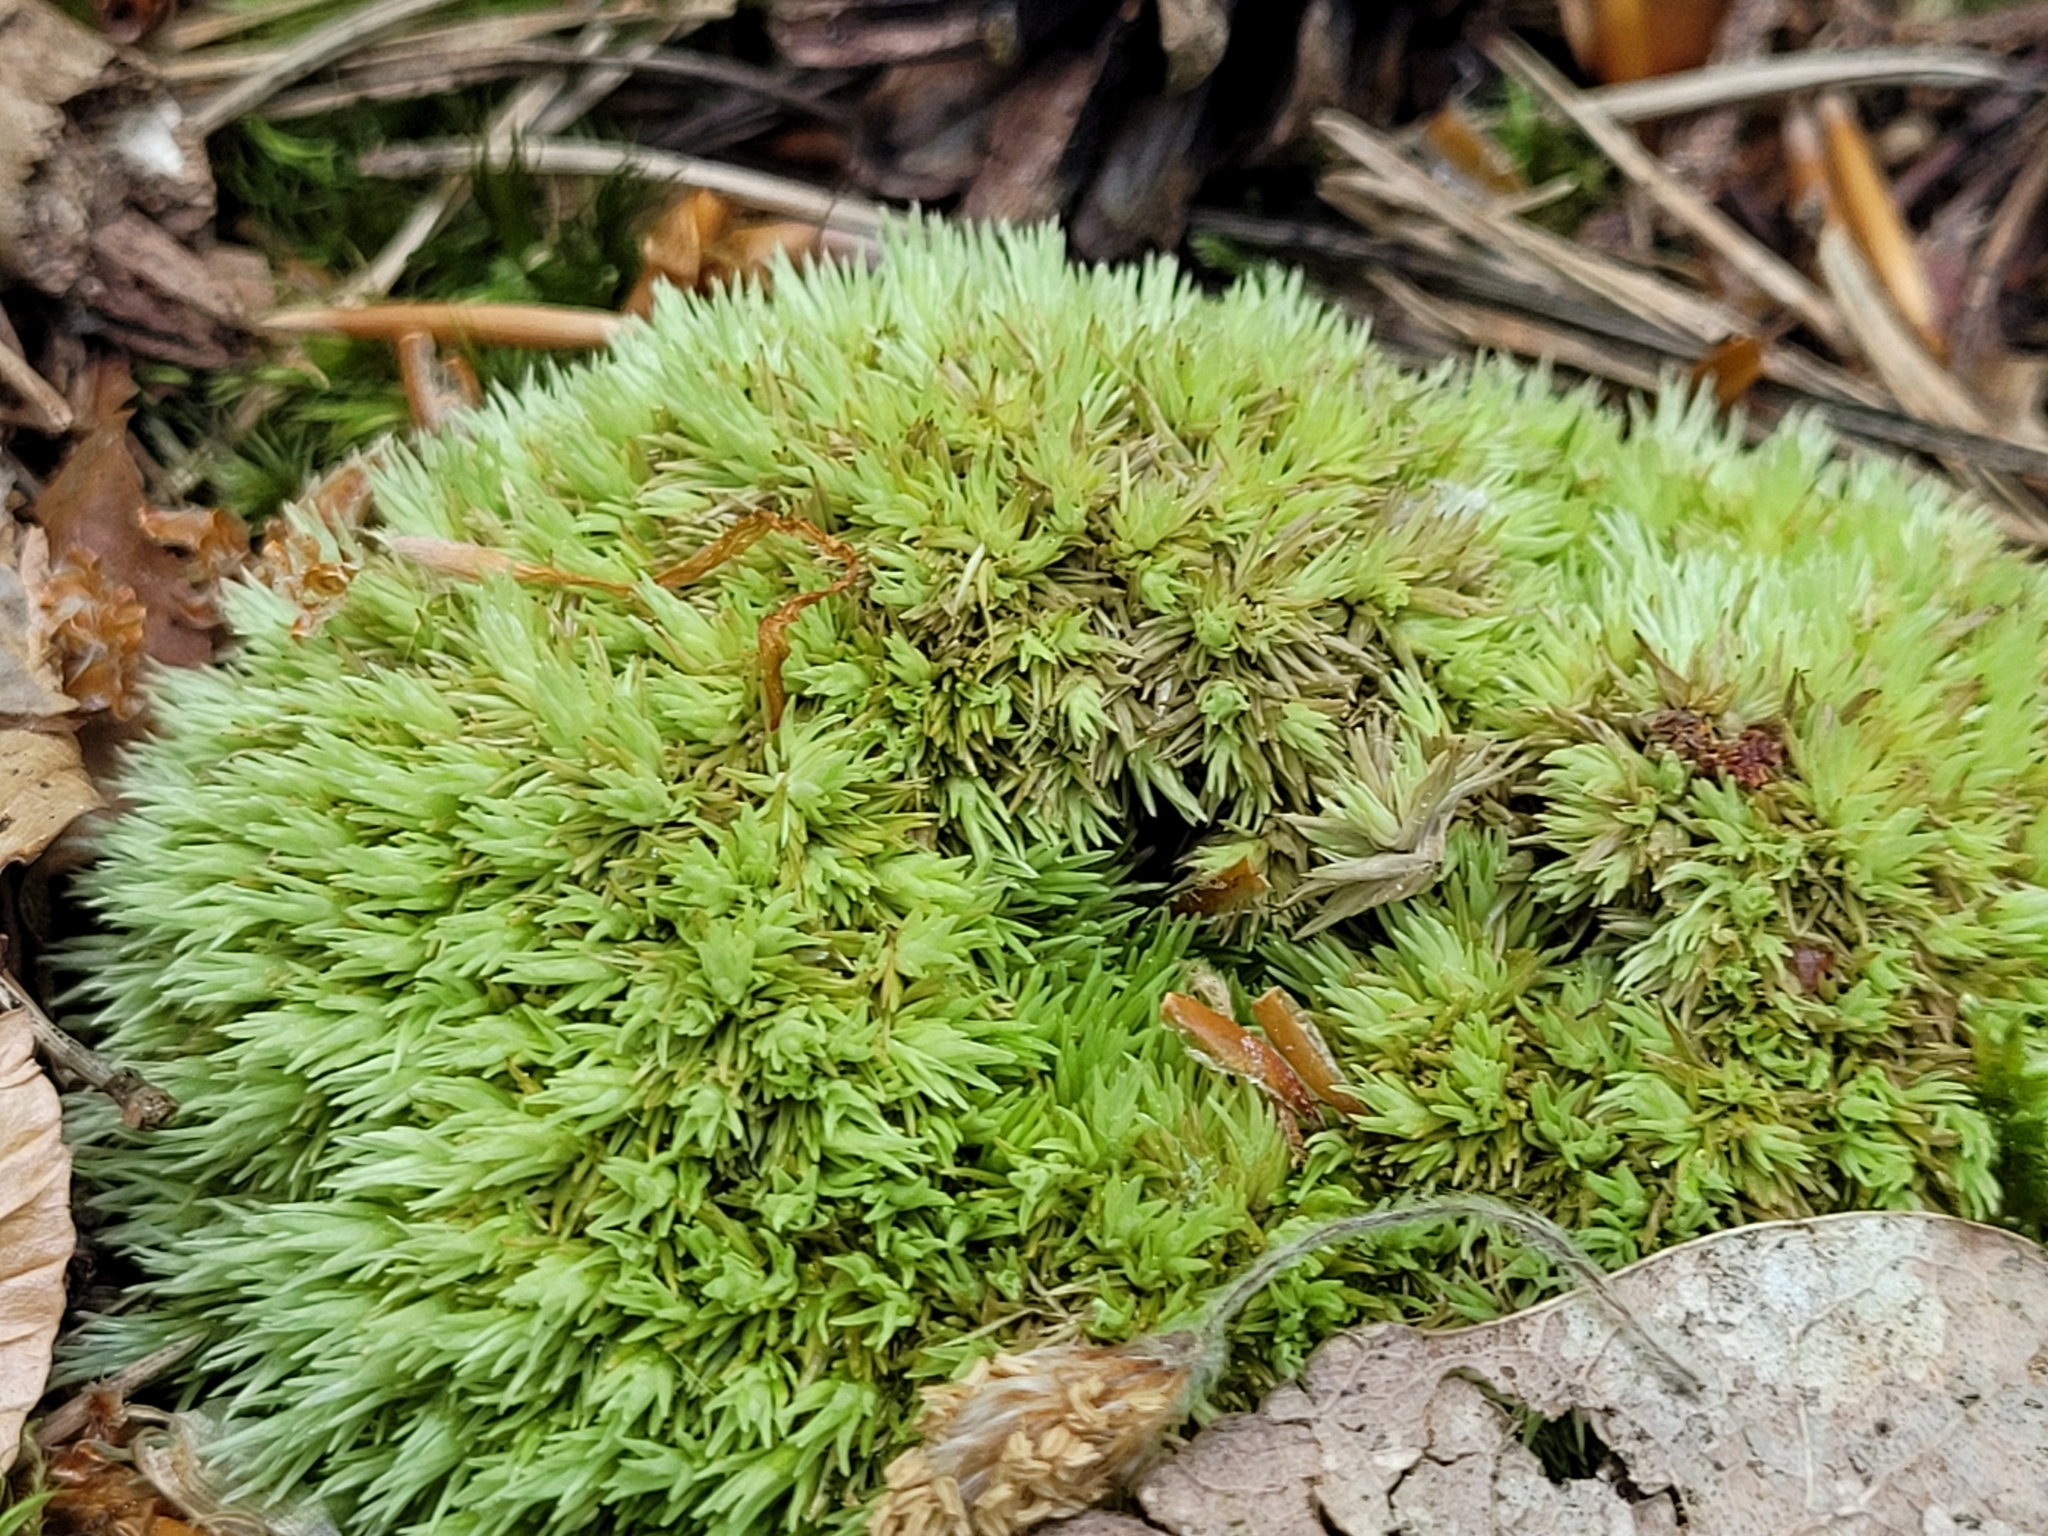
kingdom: Plantae
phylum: Bryophyta
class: Bryopsida
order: Dicranales
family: Leucobryaceae
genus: Leucobryum
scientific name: Leucobryum glaucum
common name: Large white-moss
